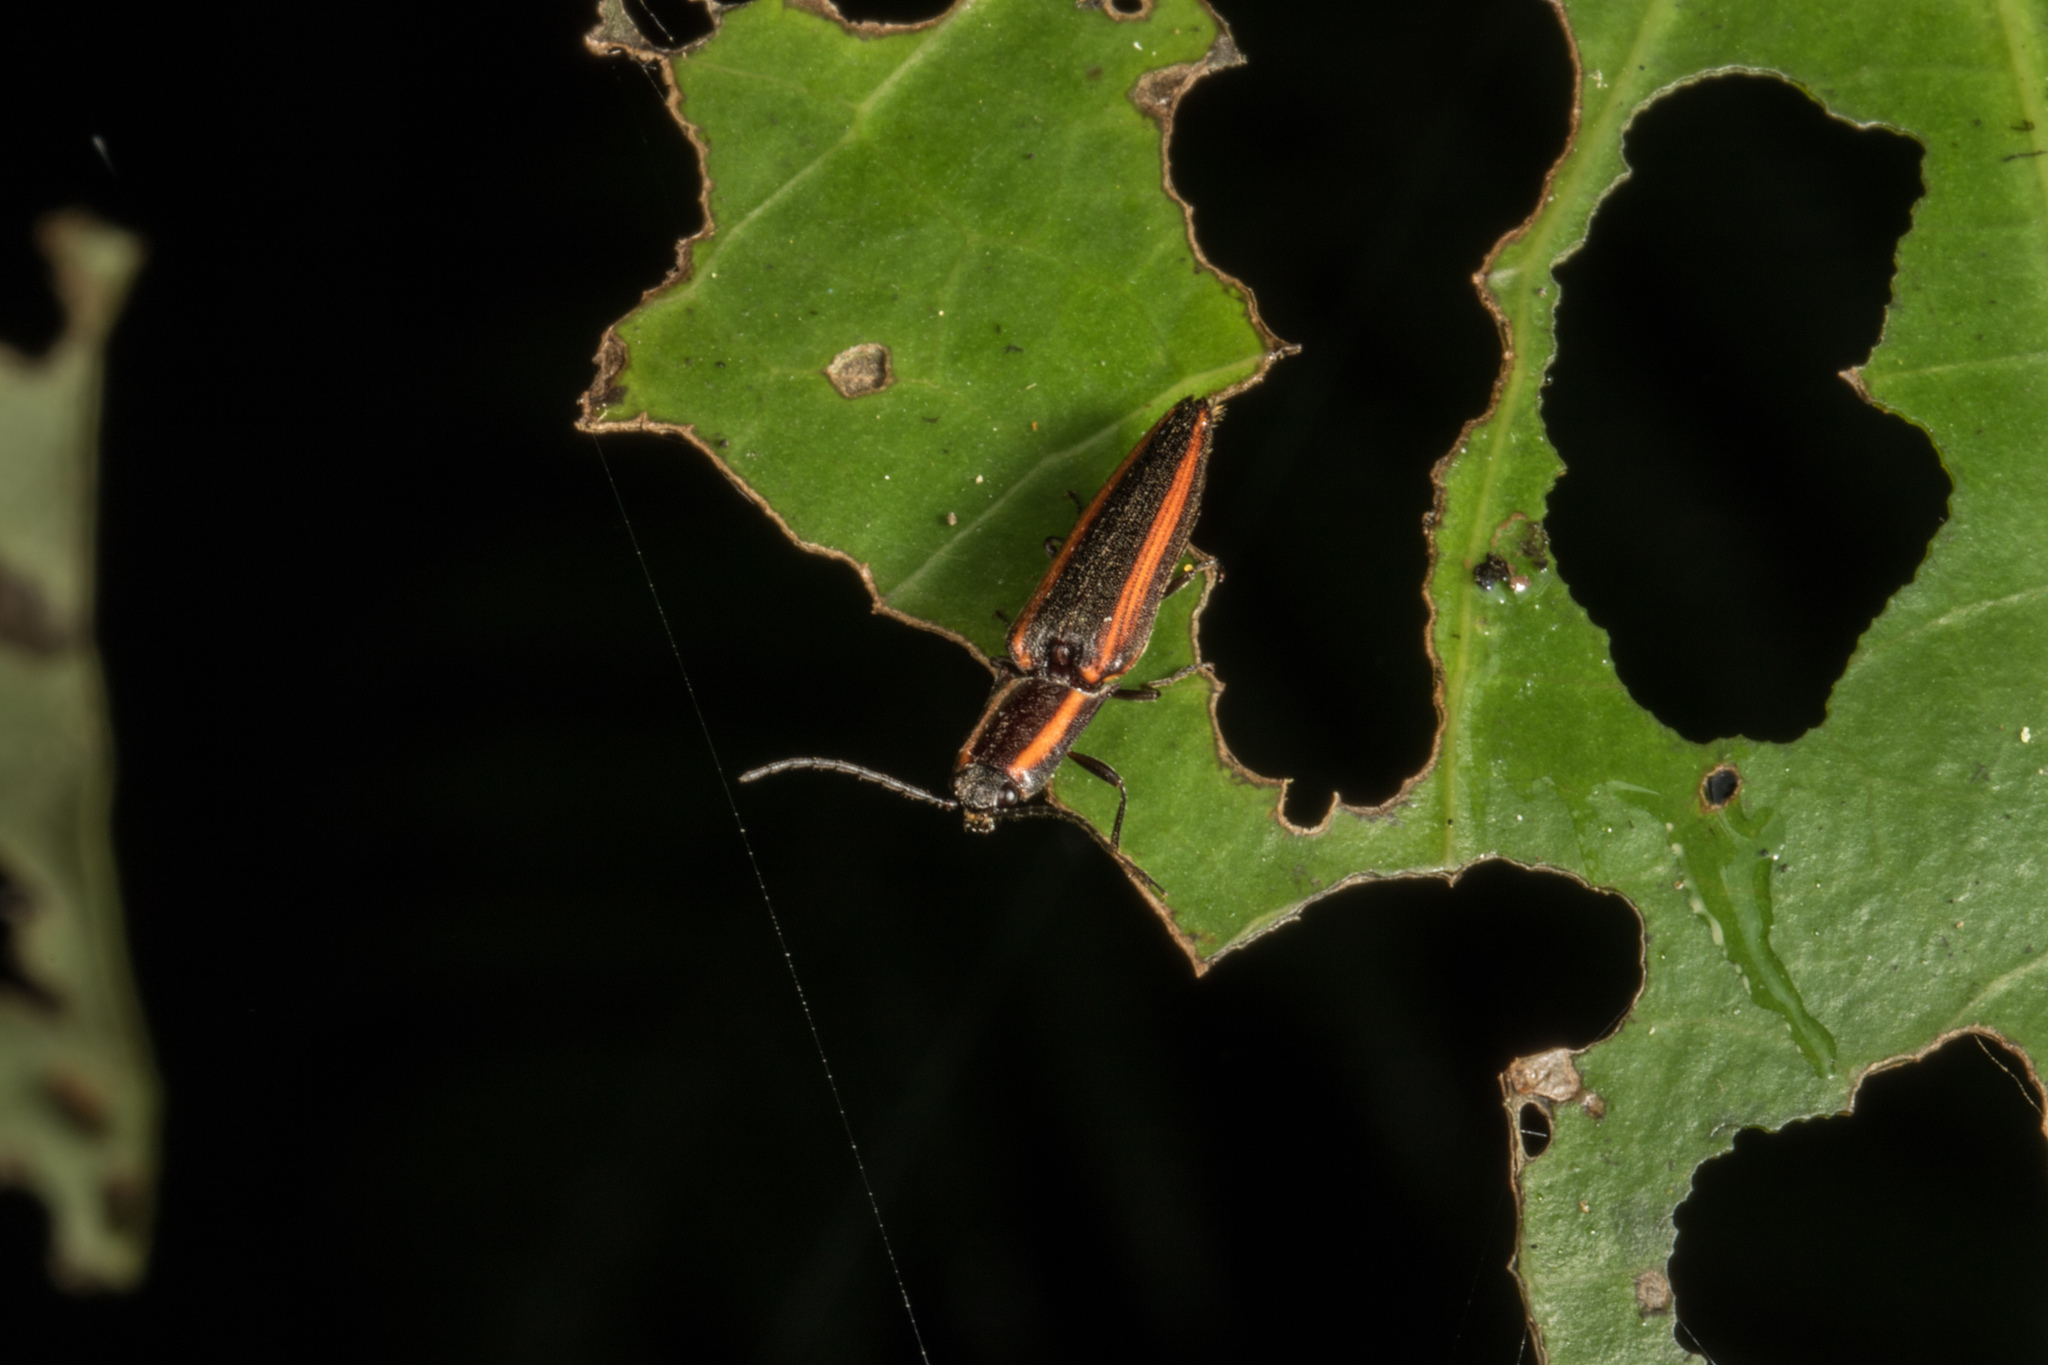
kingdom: Animalia
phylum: Arthropoda
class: Insecta
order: Coleoptera
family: Elateridae
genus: Metablax
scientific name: Metablax
